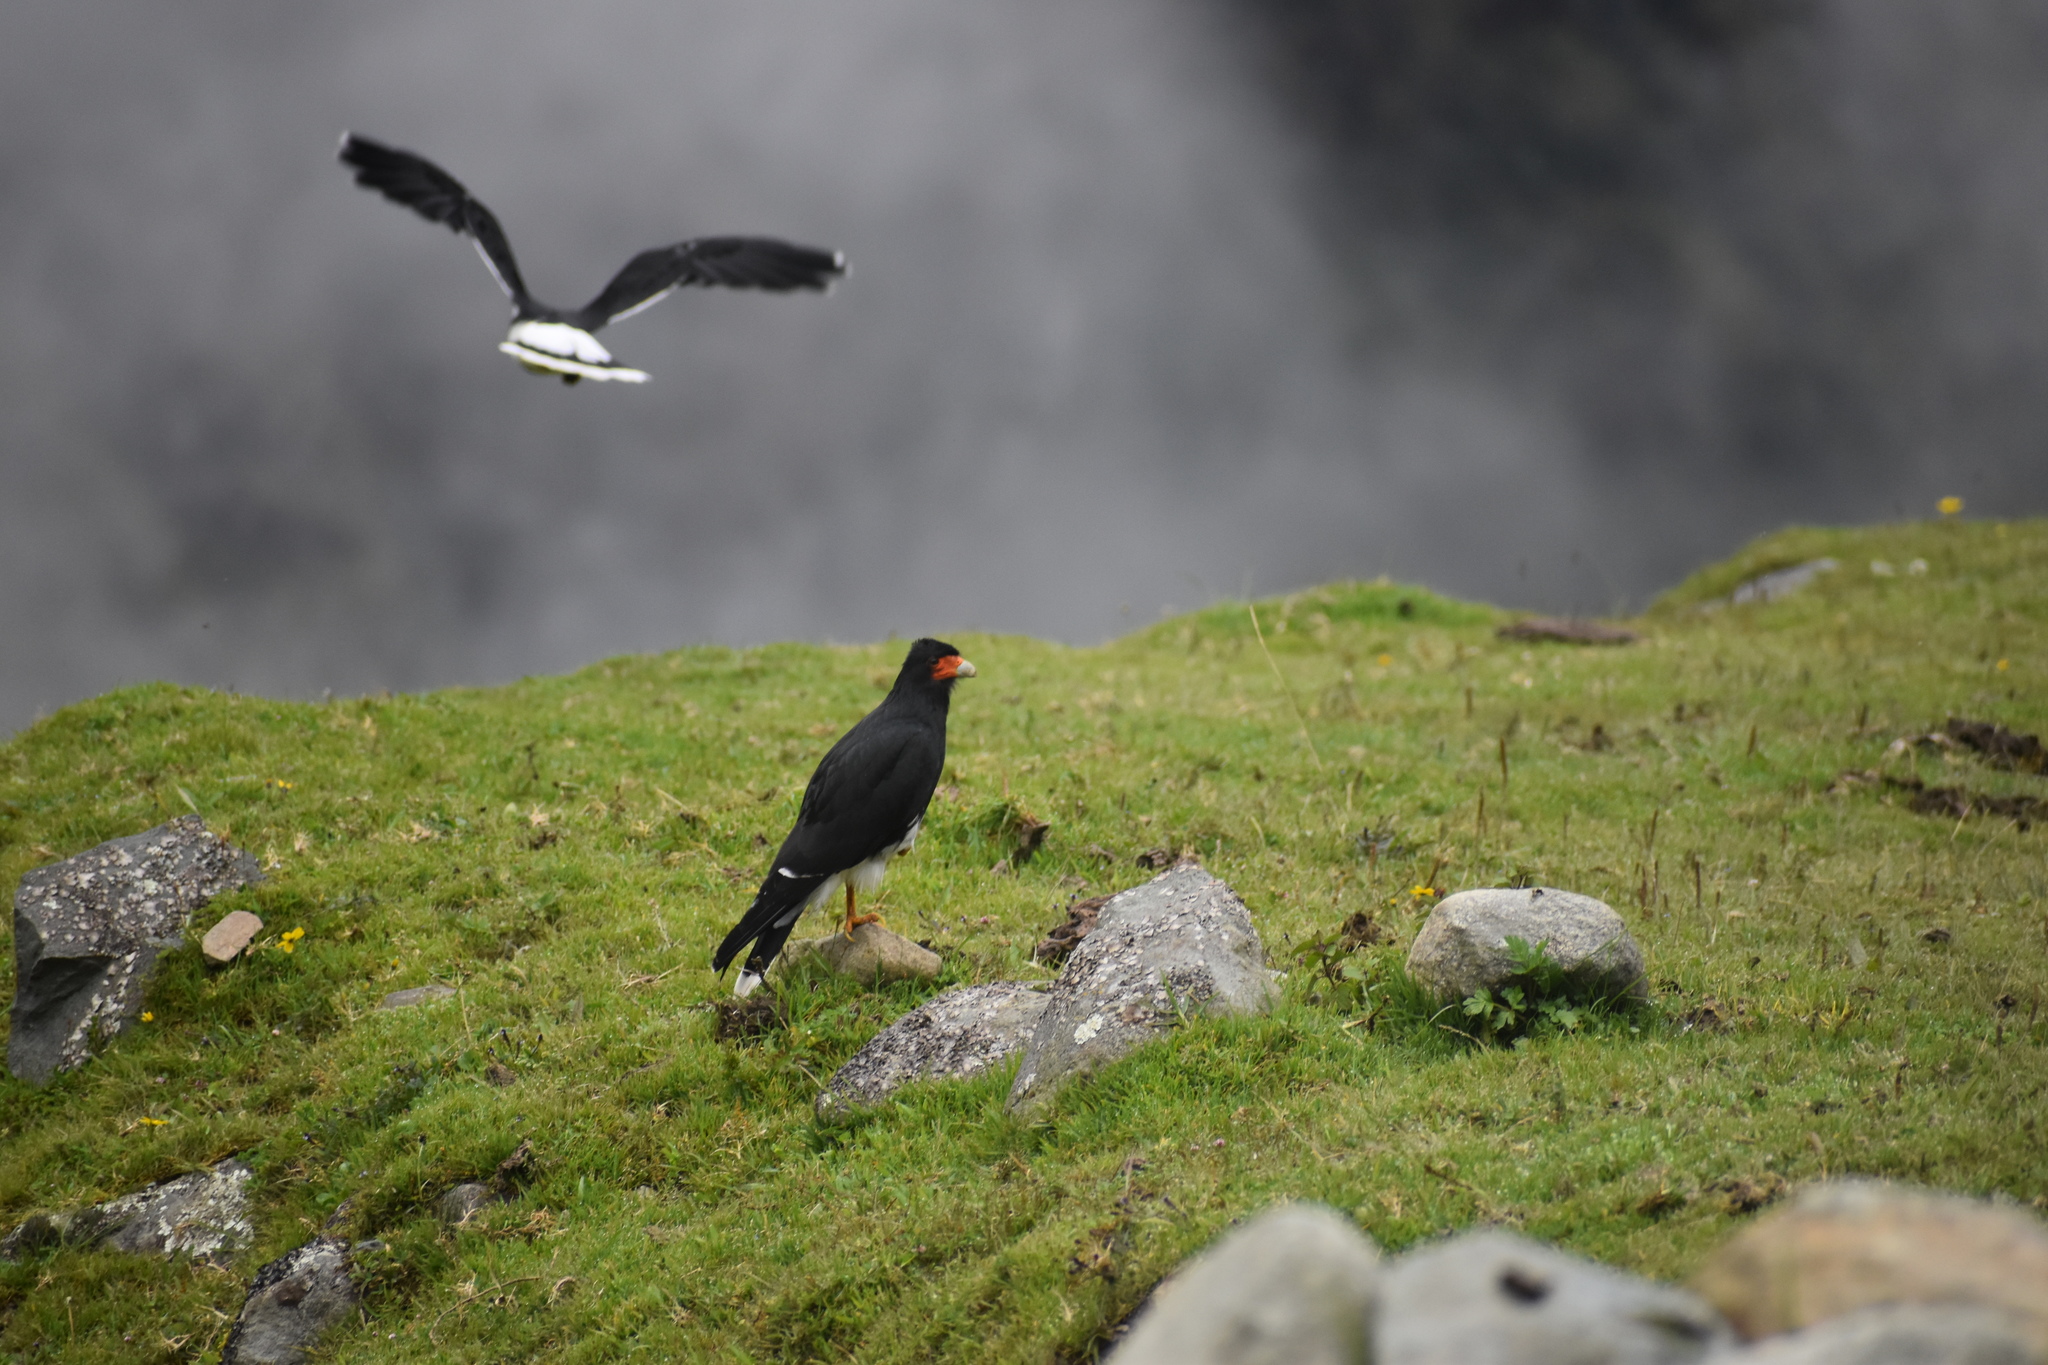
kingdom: Animalia
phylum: Chordata
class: Aves
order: Falconiformes
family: Falconidae
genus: Daptrius
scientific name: Daptrius
